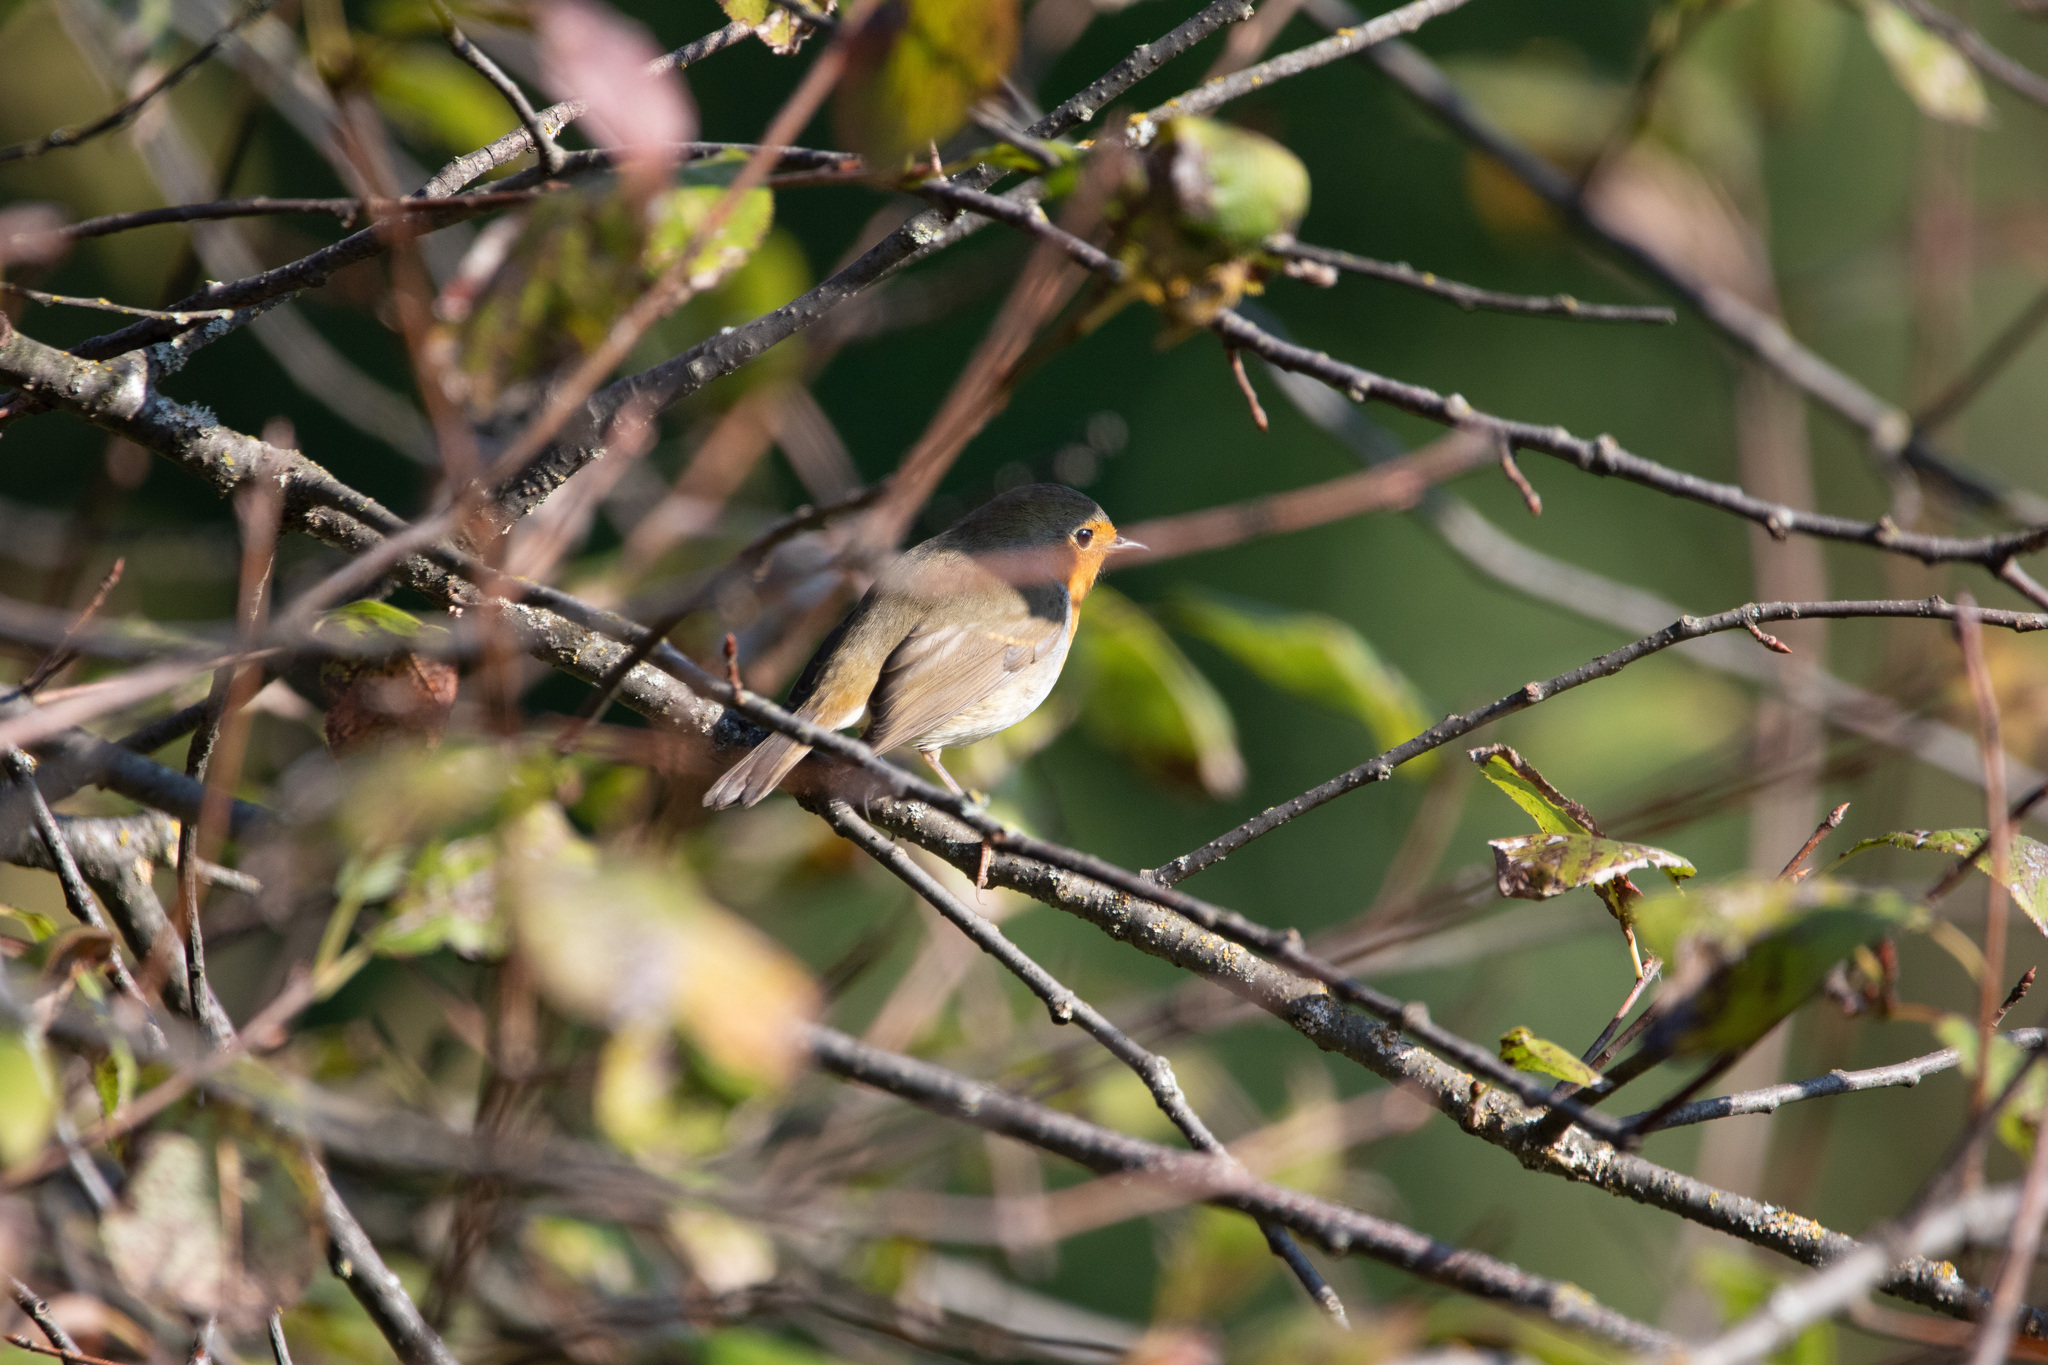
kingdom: Animalia
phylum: Chordata
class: Aves
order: Passeriformes
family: Muscicapidae
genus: Erithacus
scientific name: Erithacus rubecula
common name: European robin
